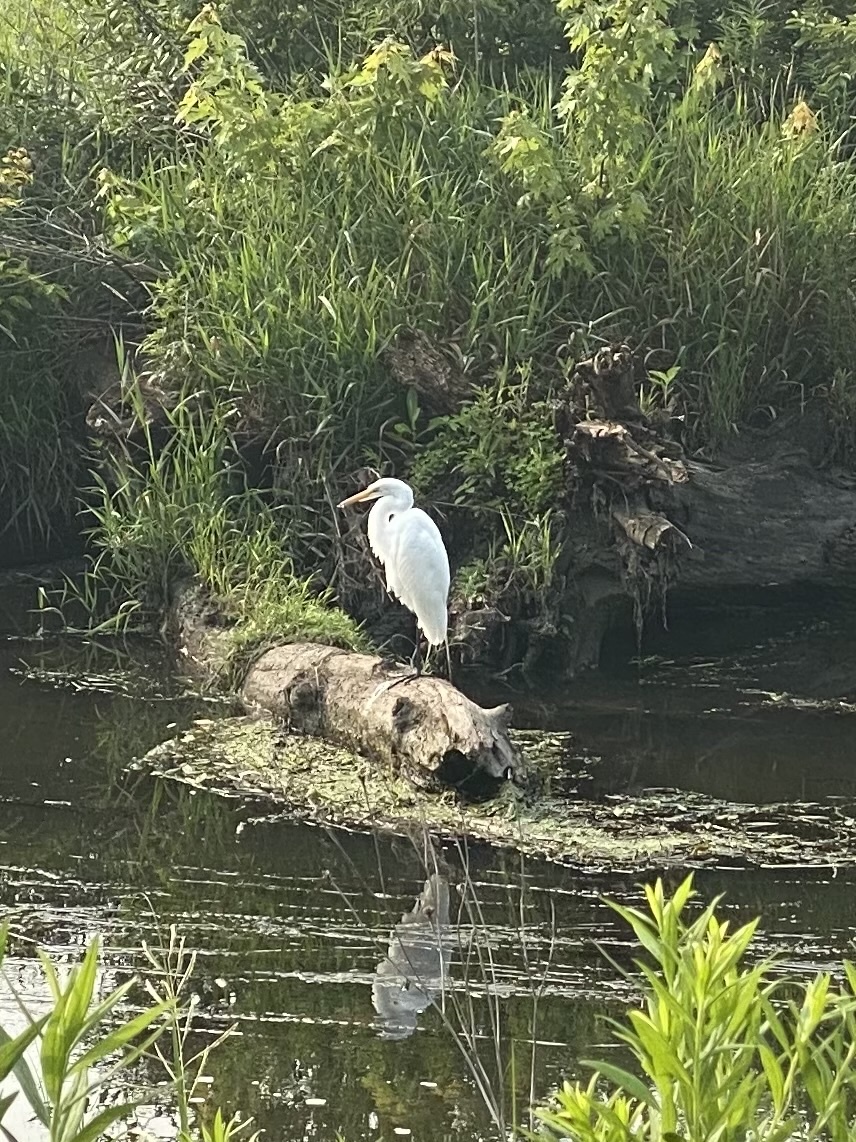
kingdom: Animalia
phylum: Chordata
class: Aves
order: Pelecaniformes
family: Ardeidae
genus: Ardea
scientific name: Ardea alba
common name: Great egret
